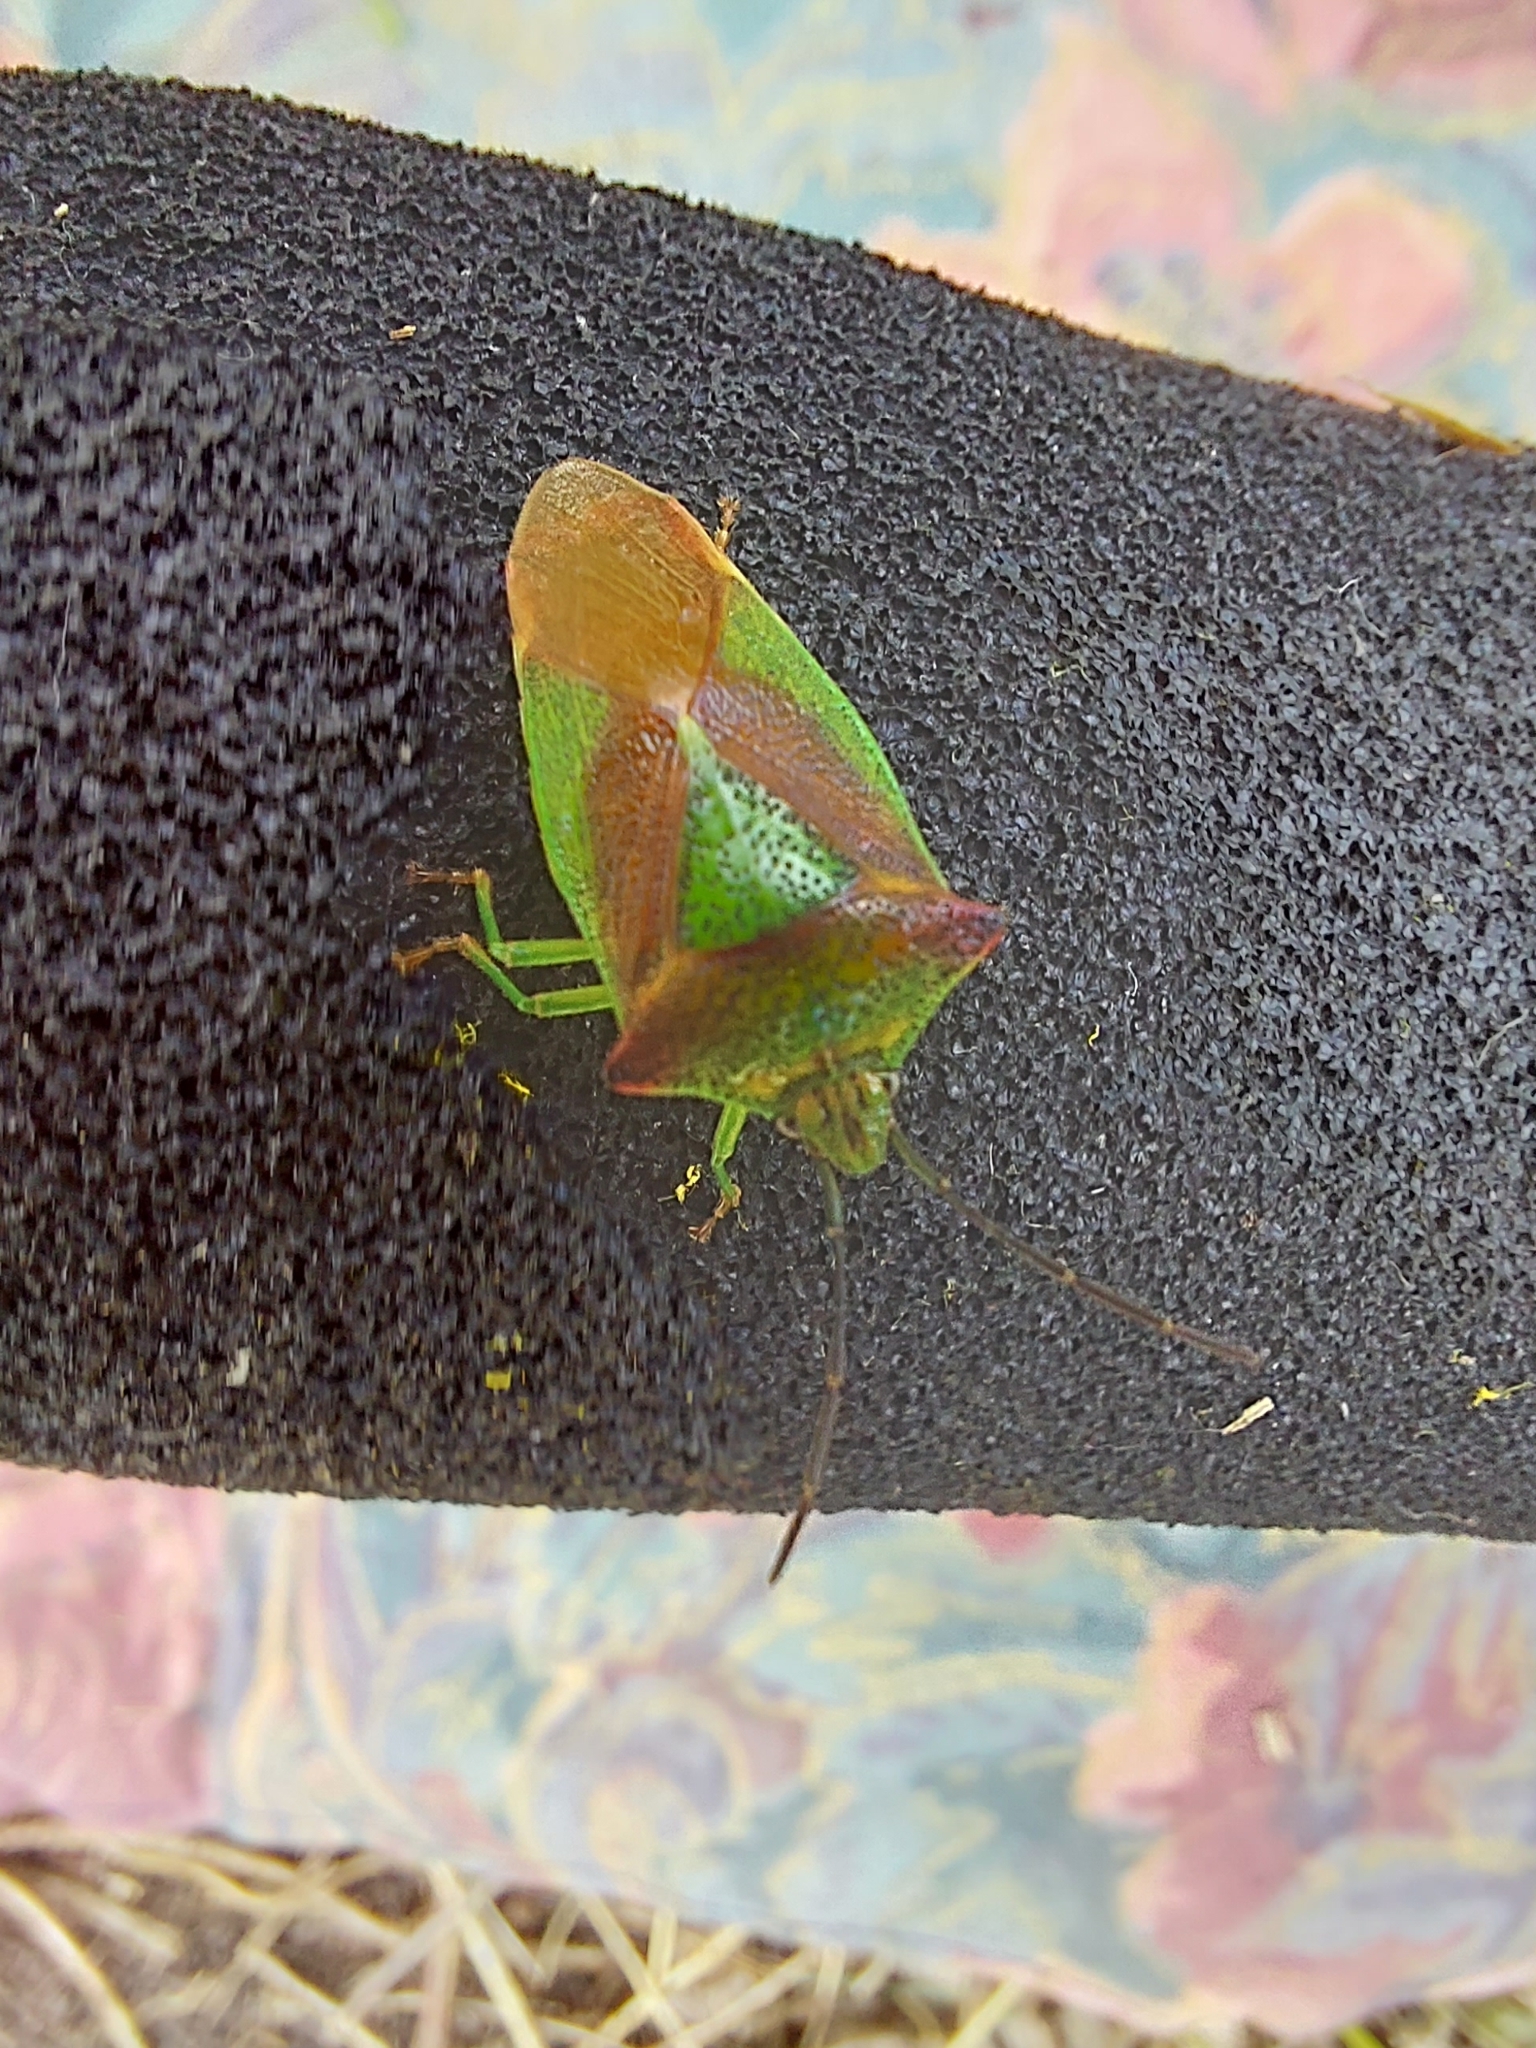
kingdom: Animalia
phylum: Arthropoda
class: Insecta
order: Hemiptera
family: Acanthosomatidae
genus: Acanthosoma
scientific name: Acanthosoma haemorrhoidale
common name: Hawthorn shieldbug
